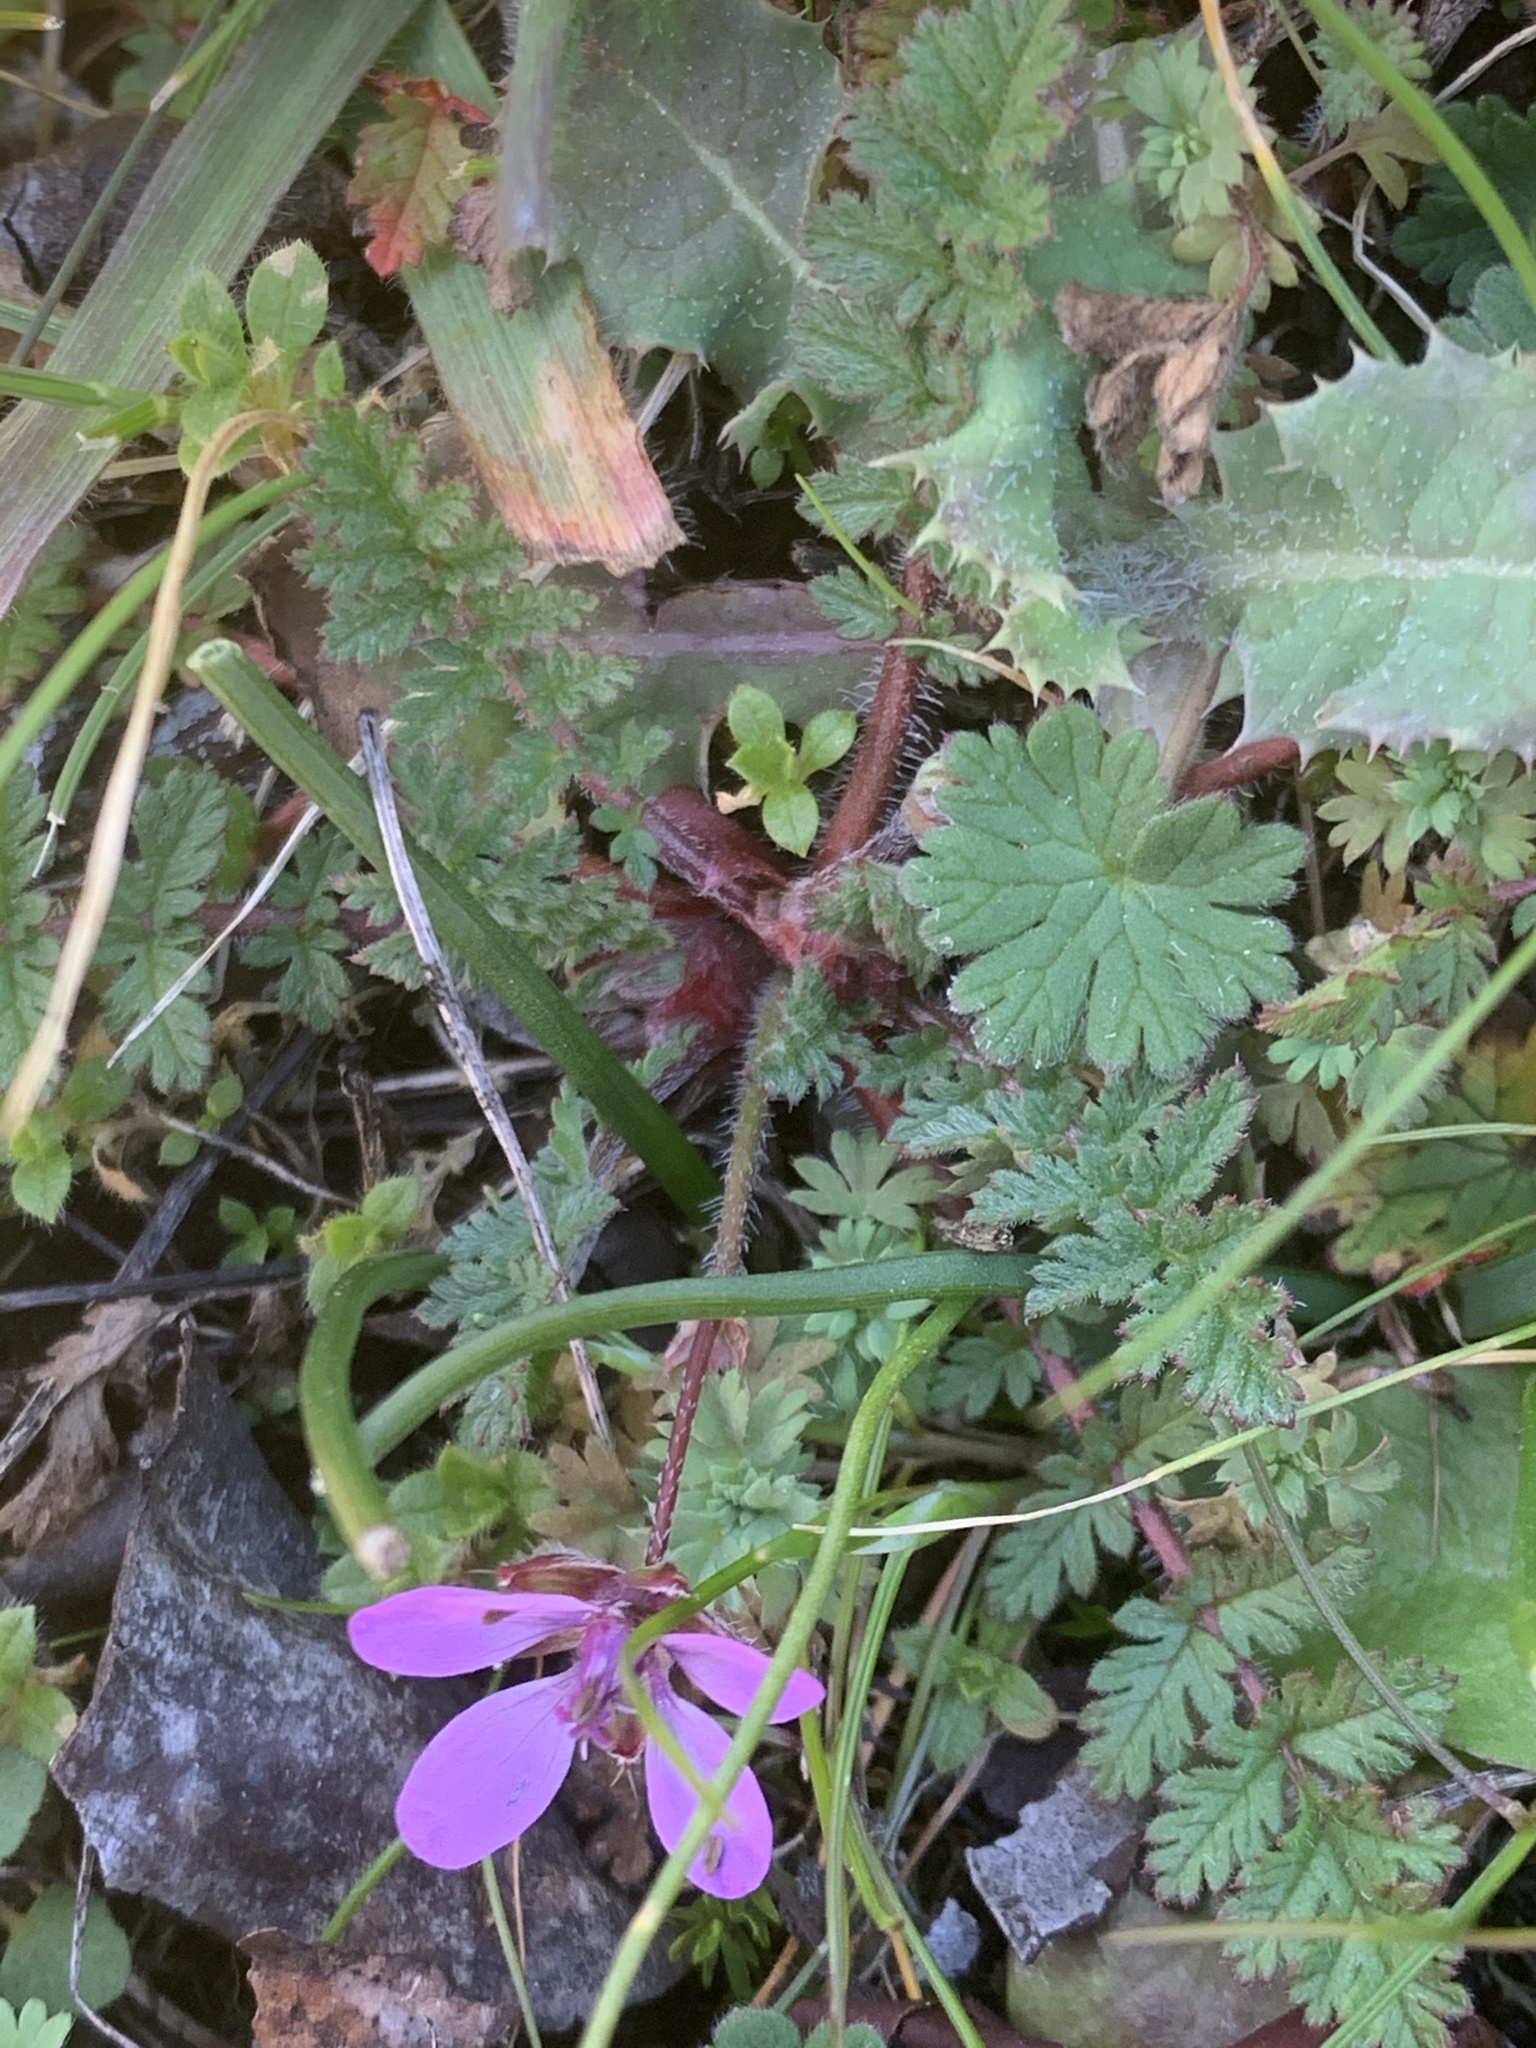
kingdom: Plantae
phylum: Tracheophyta
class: Magnoliopsida
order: Geraniales
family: Geraniaceae
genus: Erodium
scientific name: Erodium cicutarium
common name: Common stork's-bill
